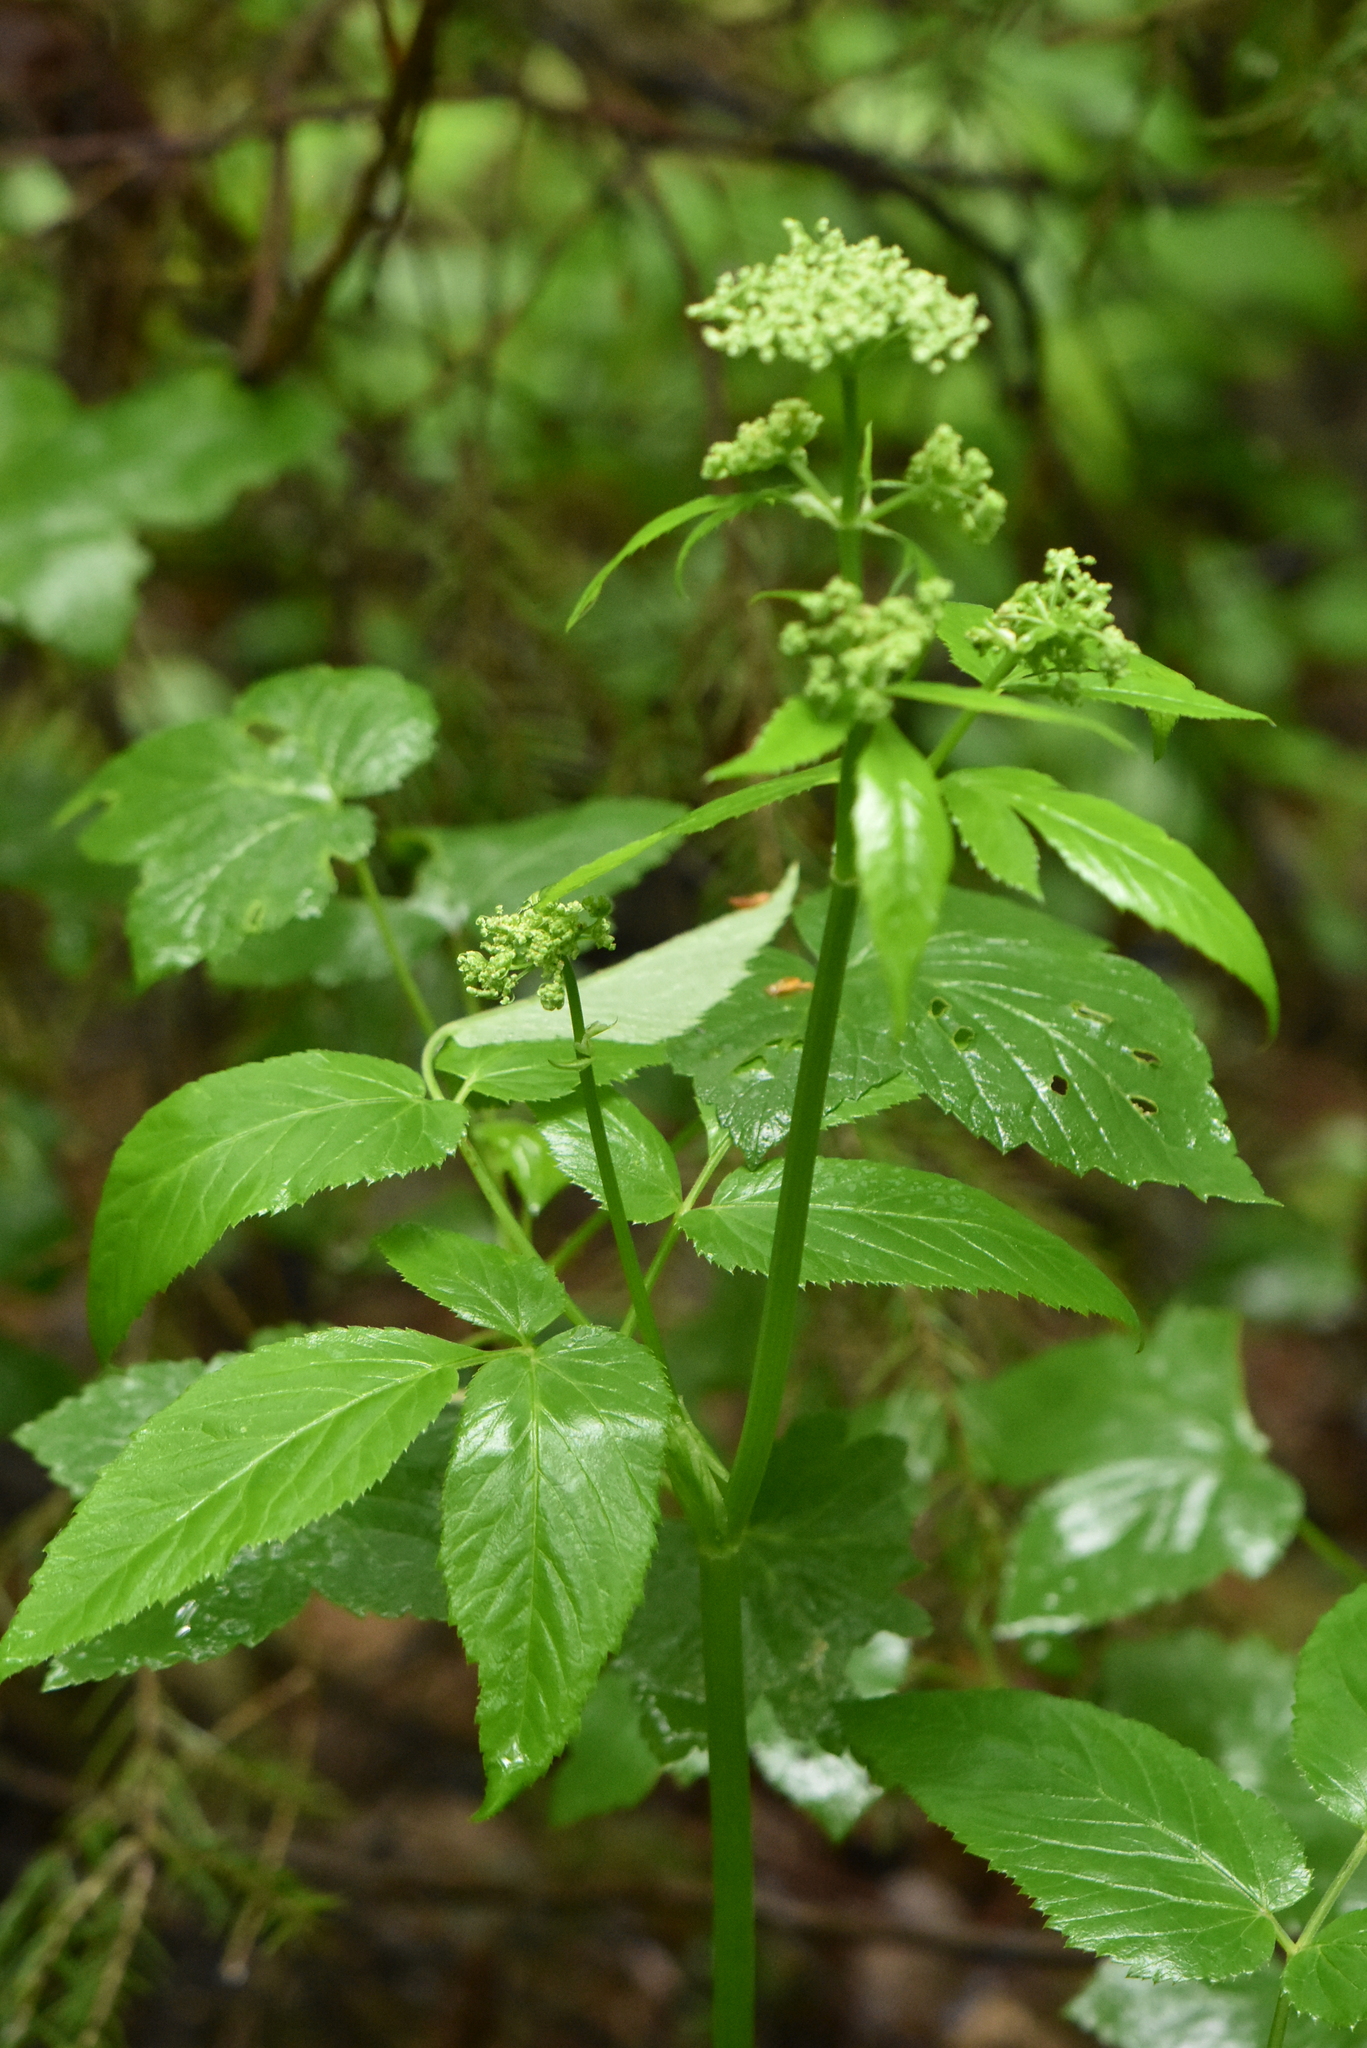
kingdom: Plantae
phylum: Tracheophyta
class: Magnoliopsida
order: Apiales
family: Apiaceae
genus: Aegopodium
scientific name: Aegopodium podagraria
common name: Ground-elder
